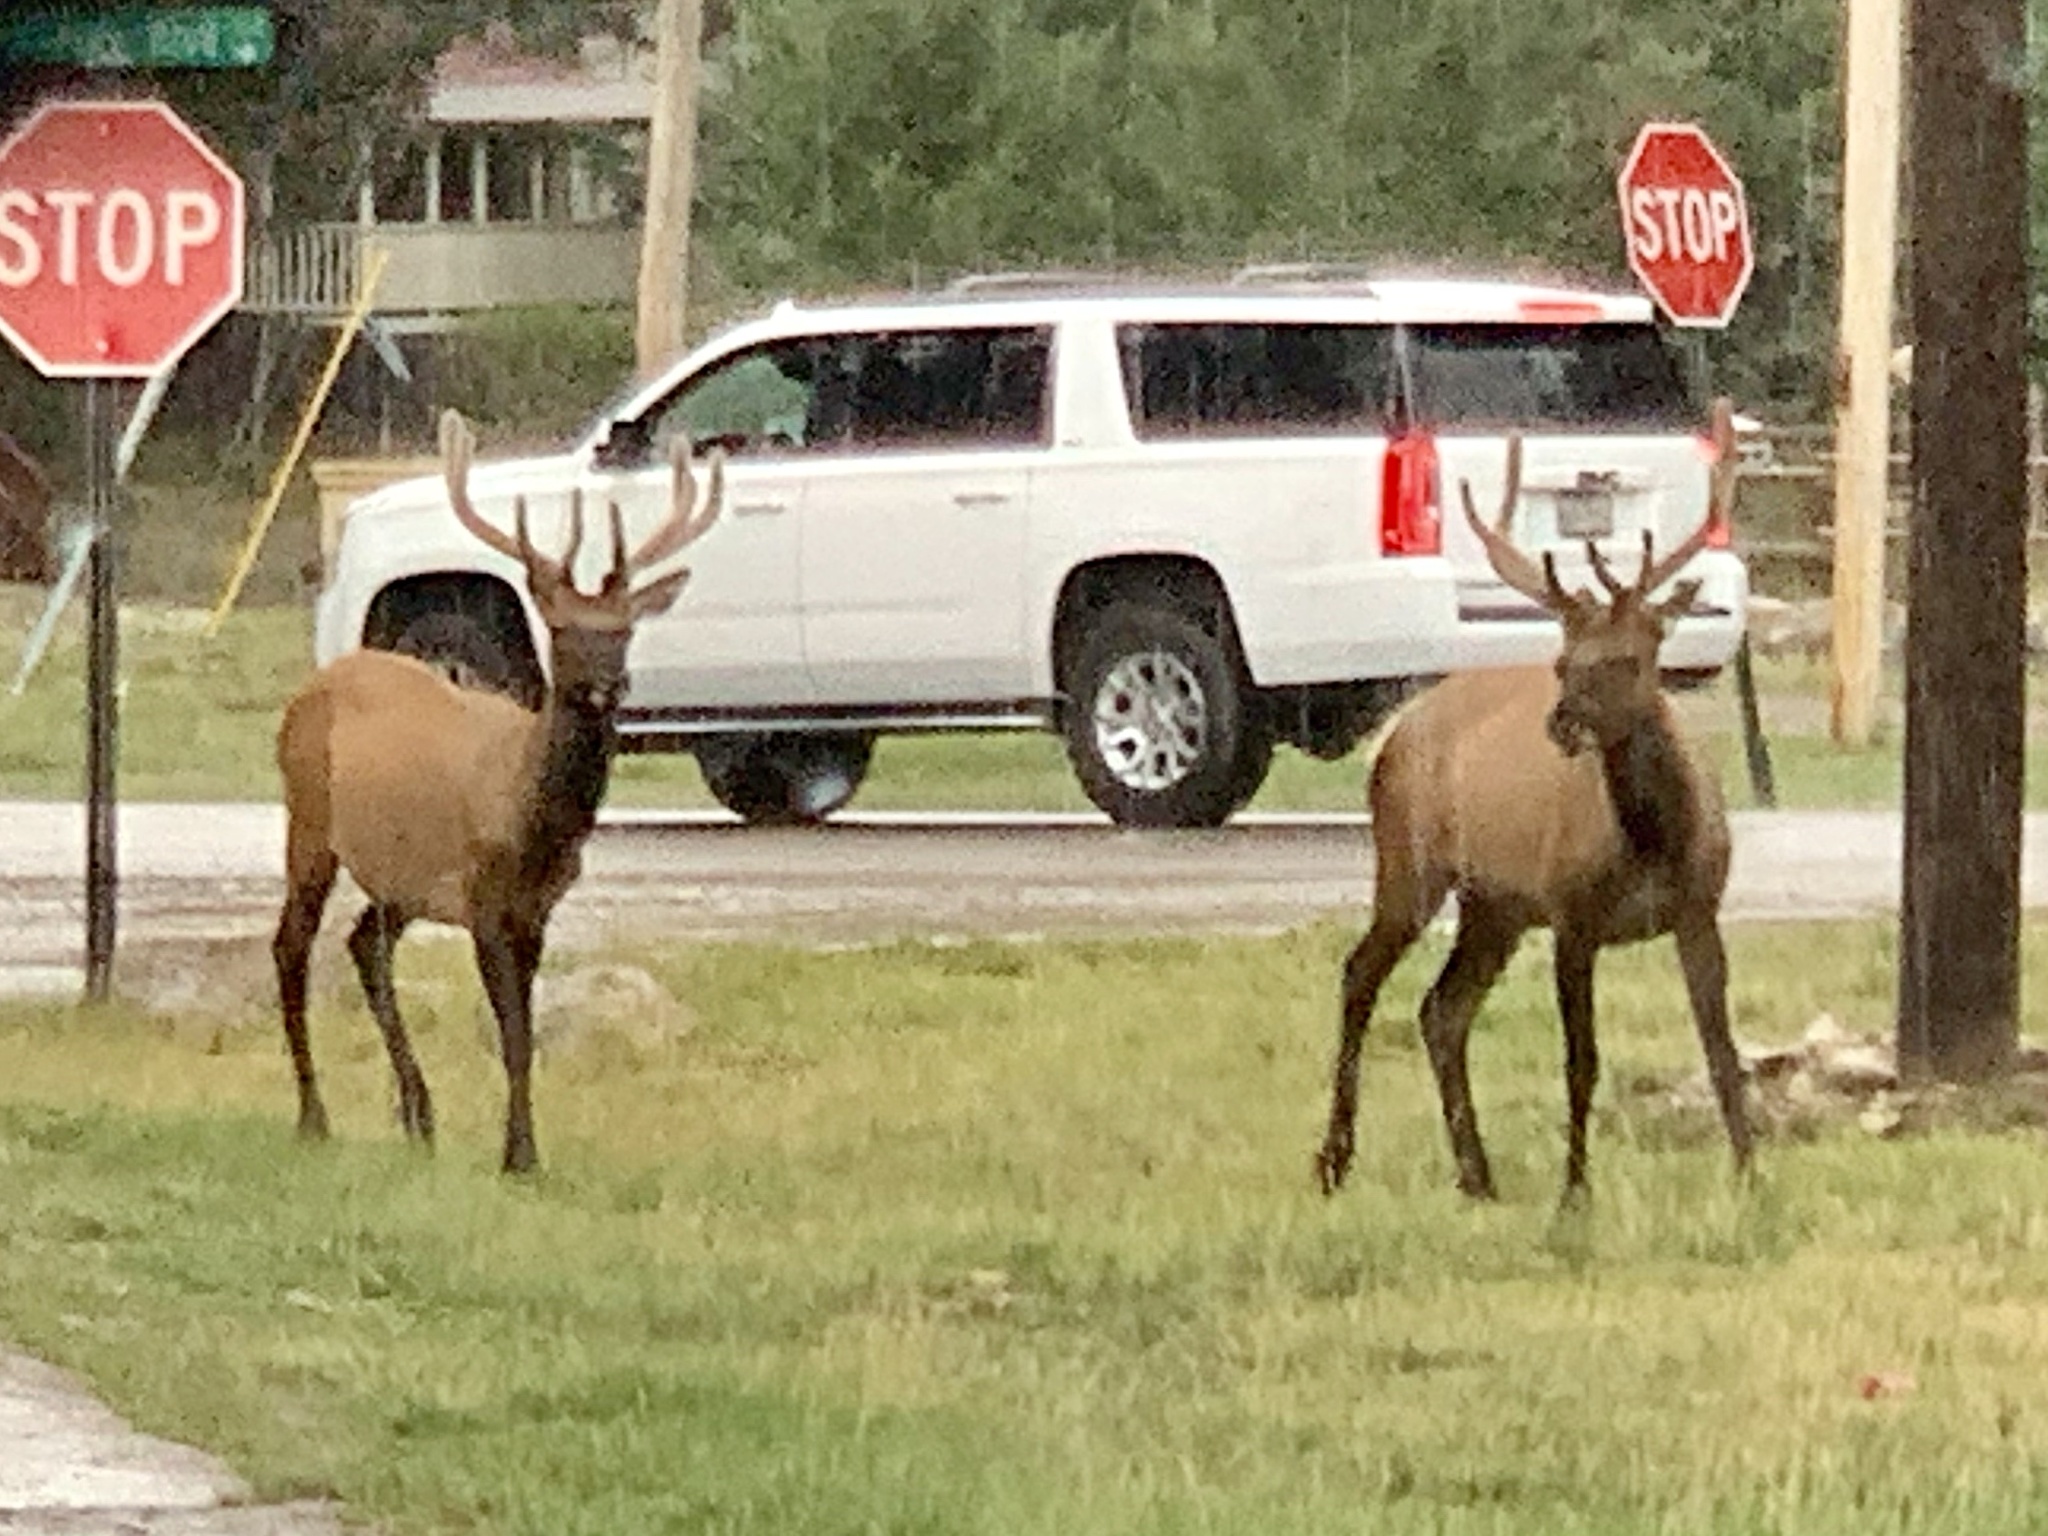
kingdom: Animalia
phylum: Chordata
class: Mammalia
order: Artiodactyla
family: Cervidae
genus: Cervus
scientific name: Cervus elaphus
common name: Red deer
